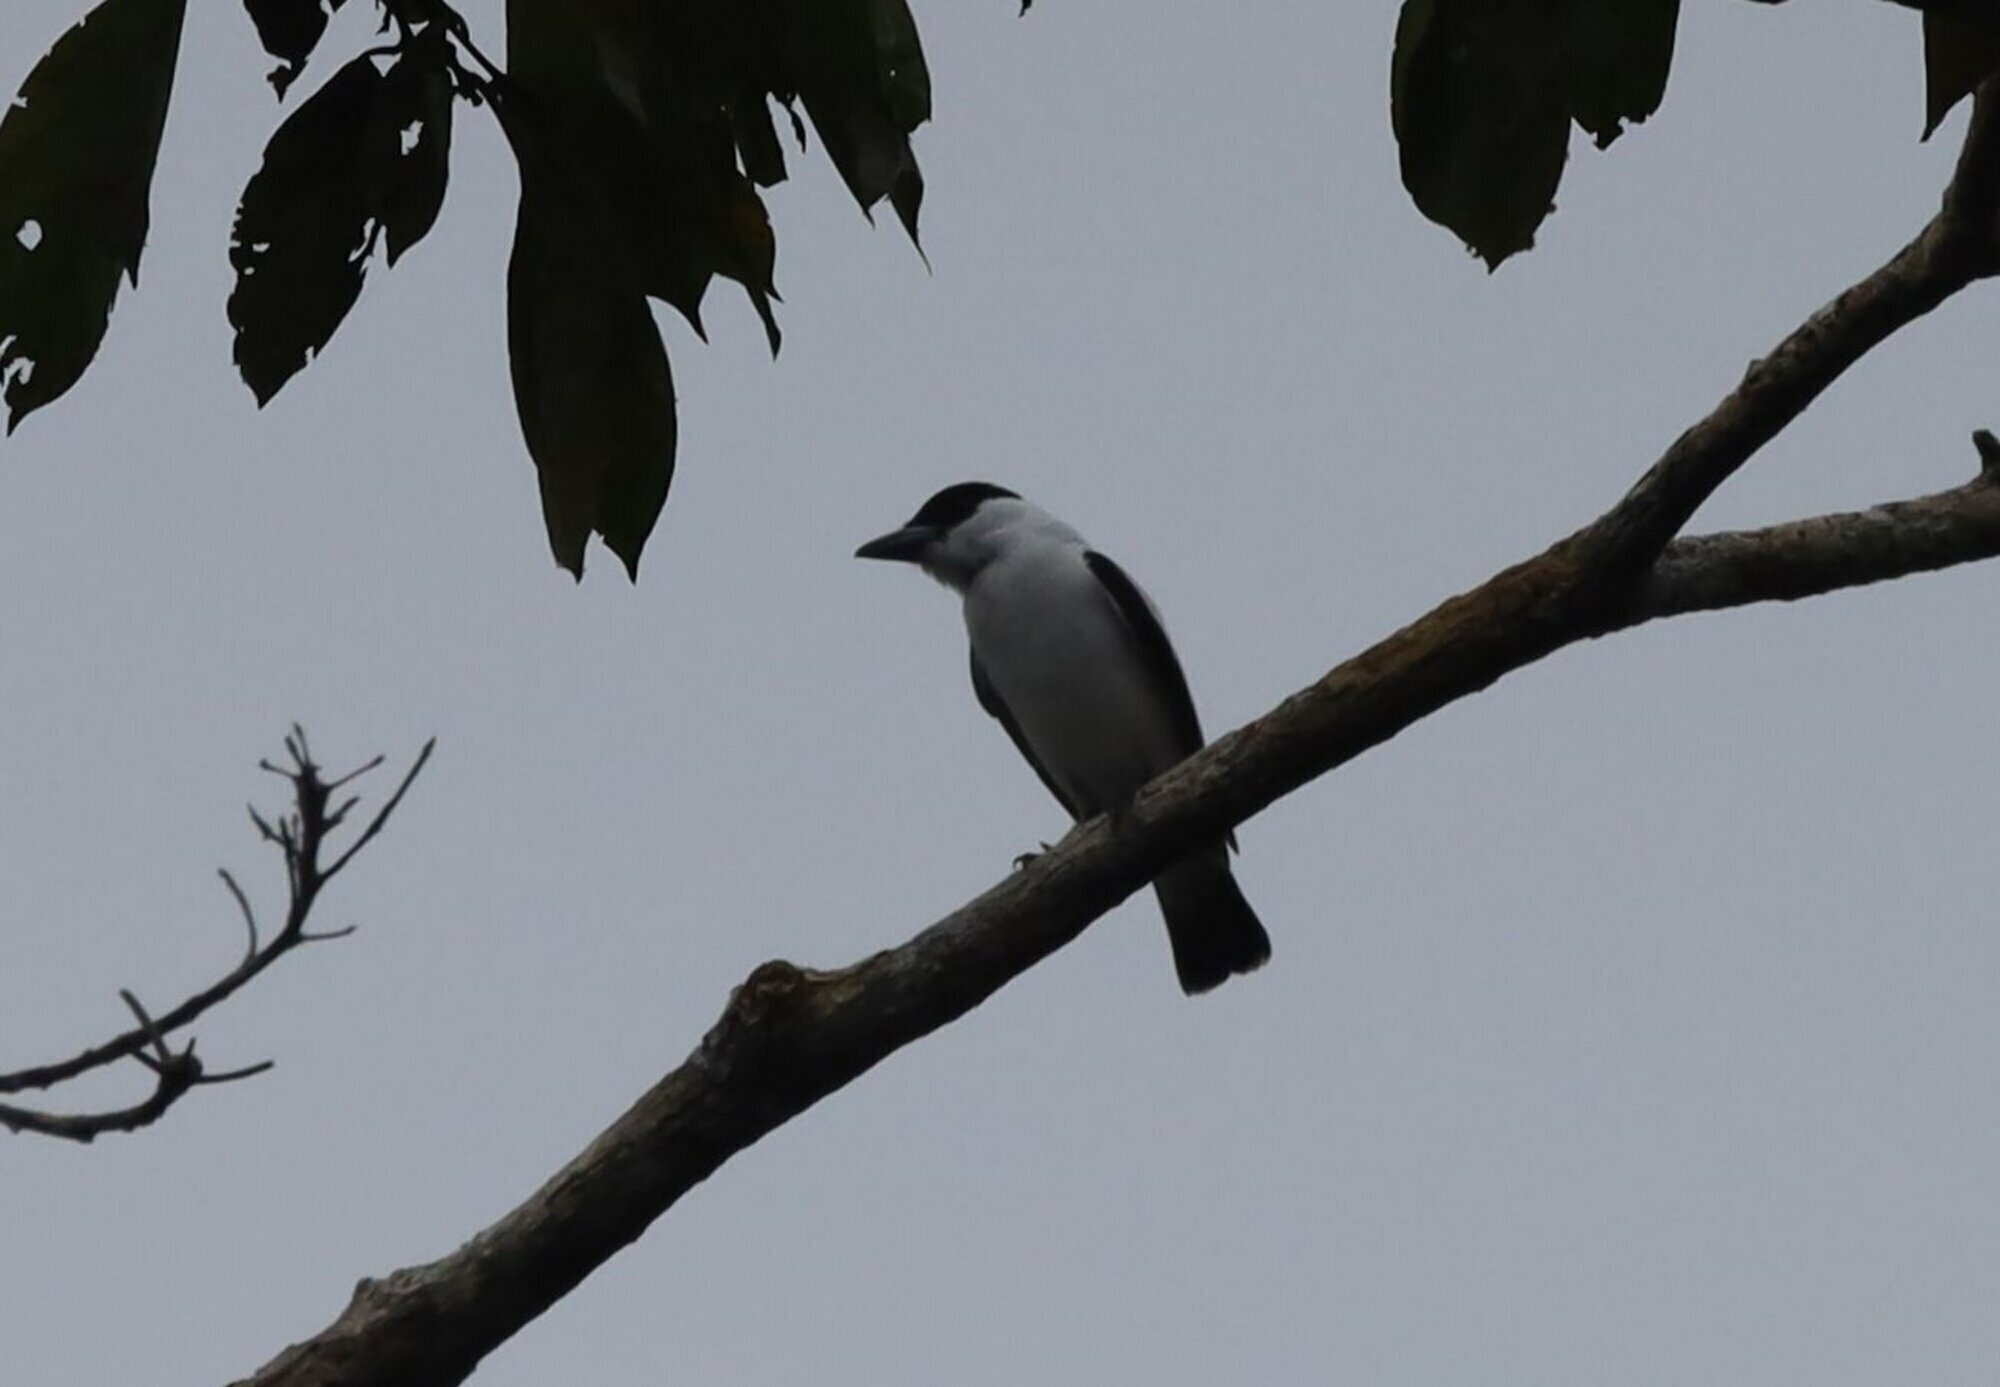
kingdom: Animalia
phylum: Chordata
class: Aves
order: Passeriformes
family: Cotingidae
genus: Tityra
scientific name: Tityra inquisitor
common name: Black-crowned tityra
